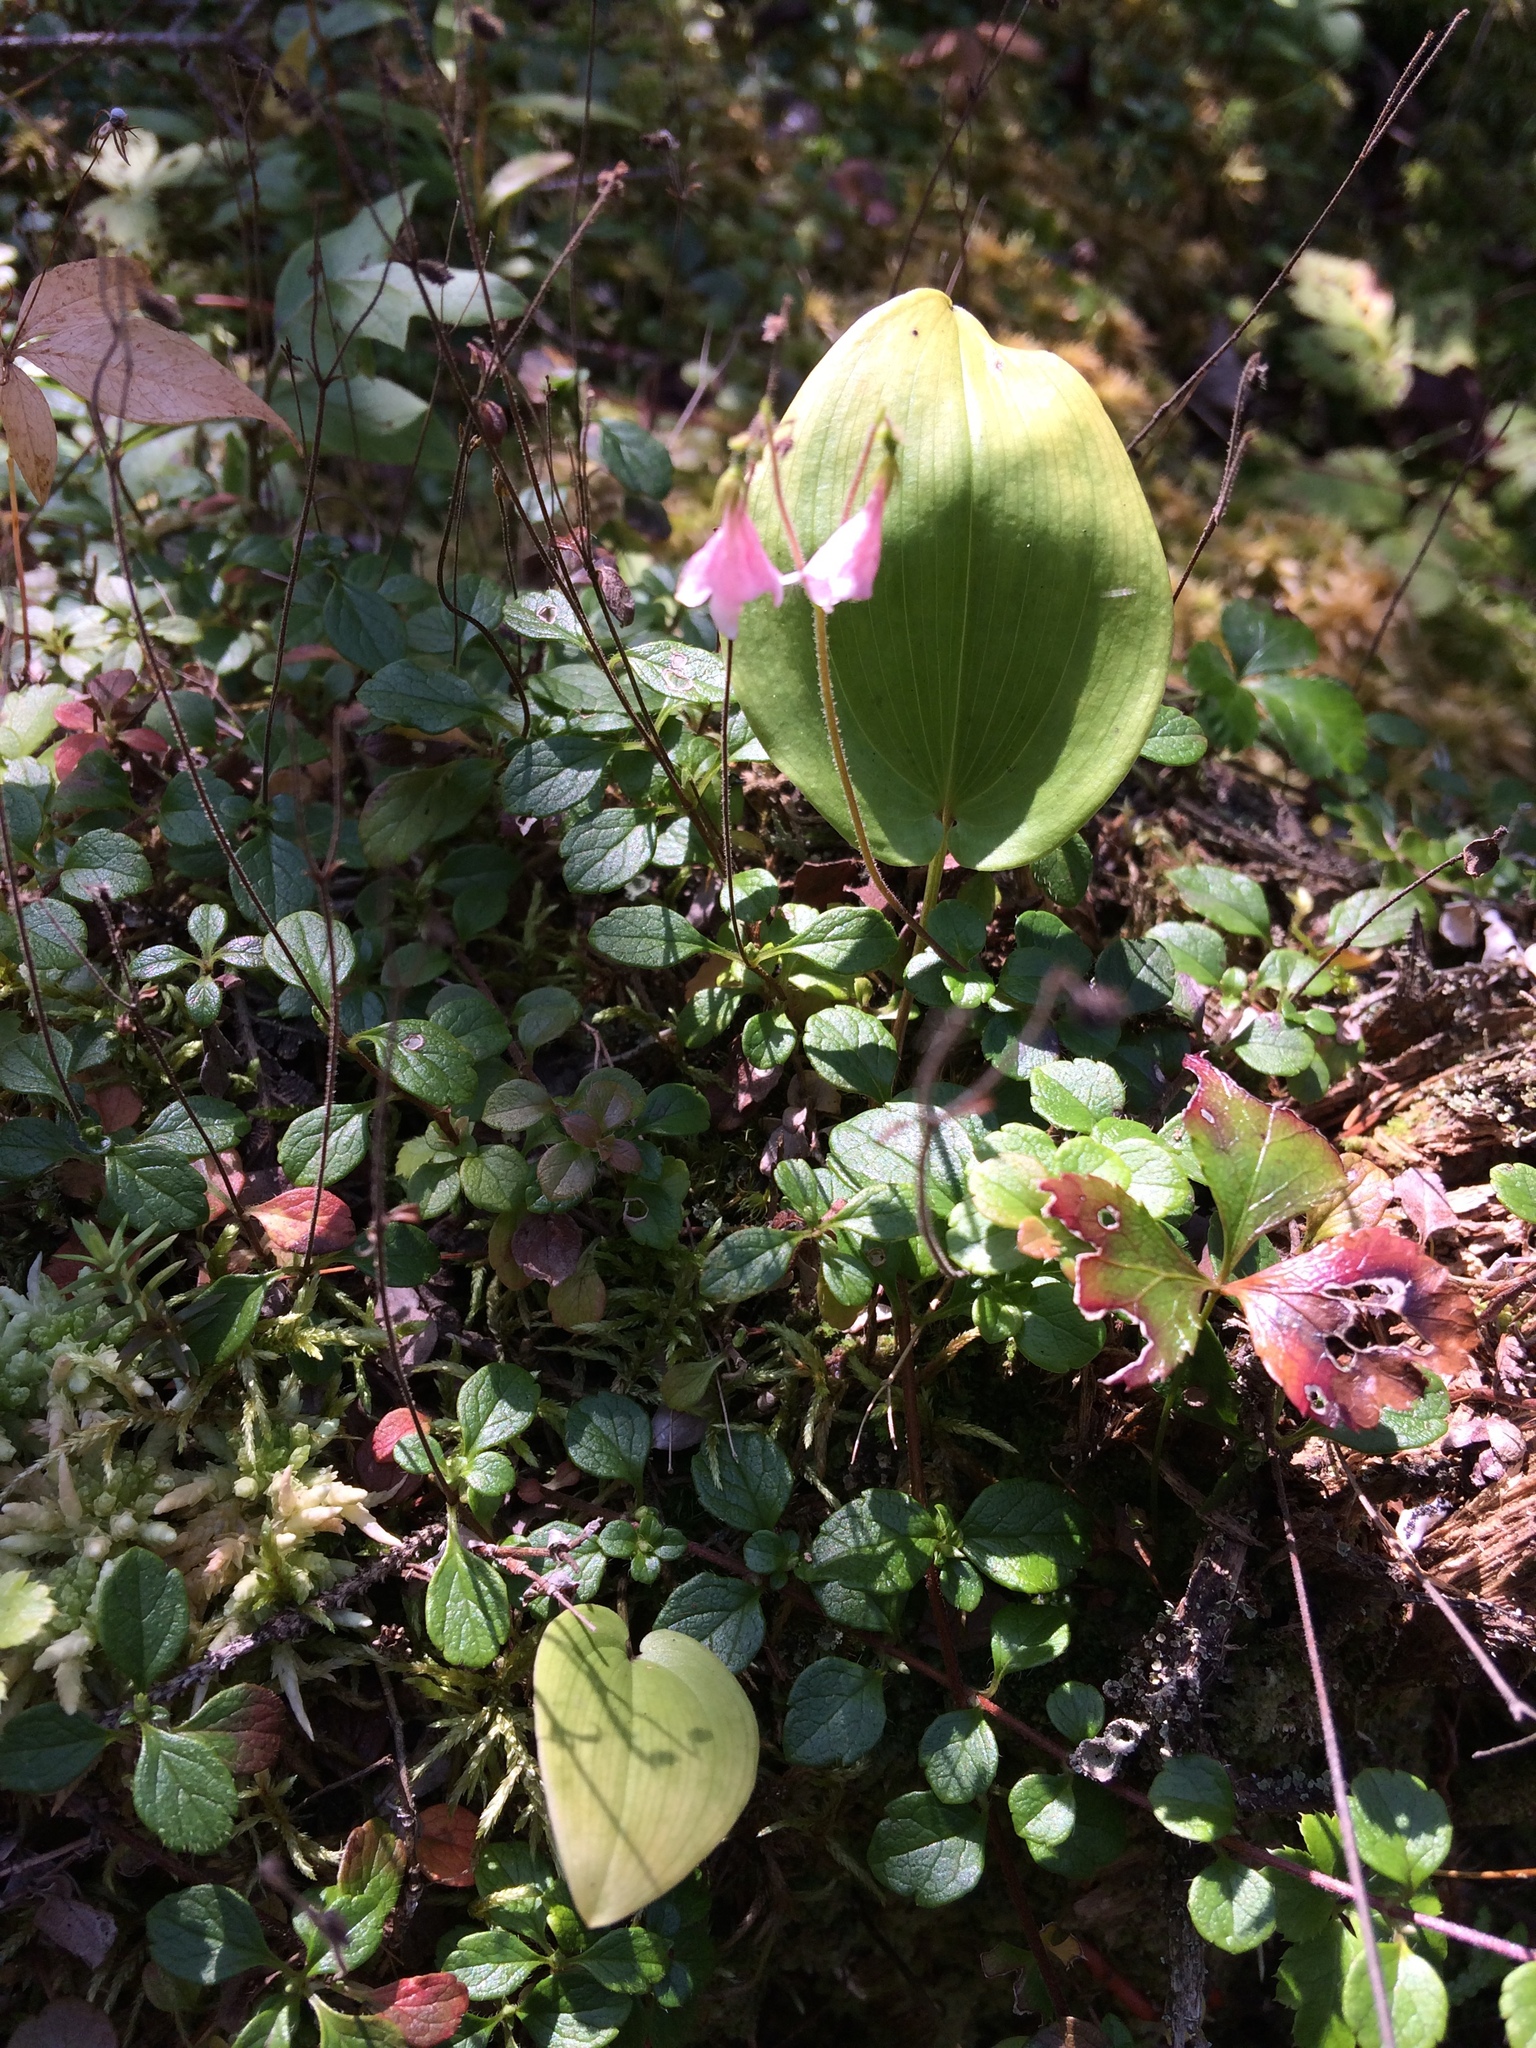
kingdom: Plantae
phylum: Tracheophyta
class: Magnoliopsida
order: Dipsacales
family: Caprifoliaceae
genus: Linnaea
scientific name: Linnaea borealis
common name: Twinflower
